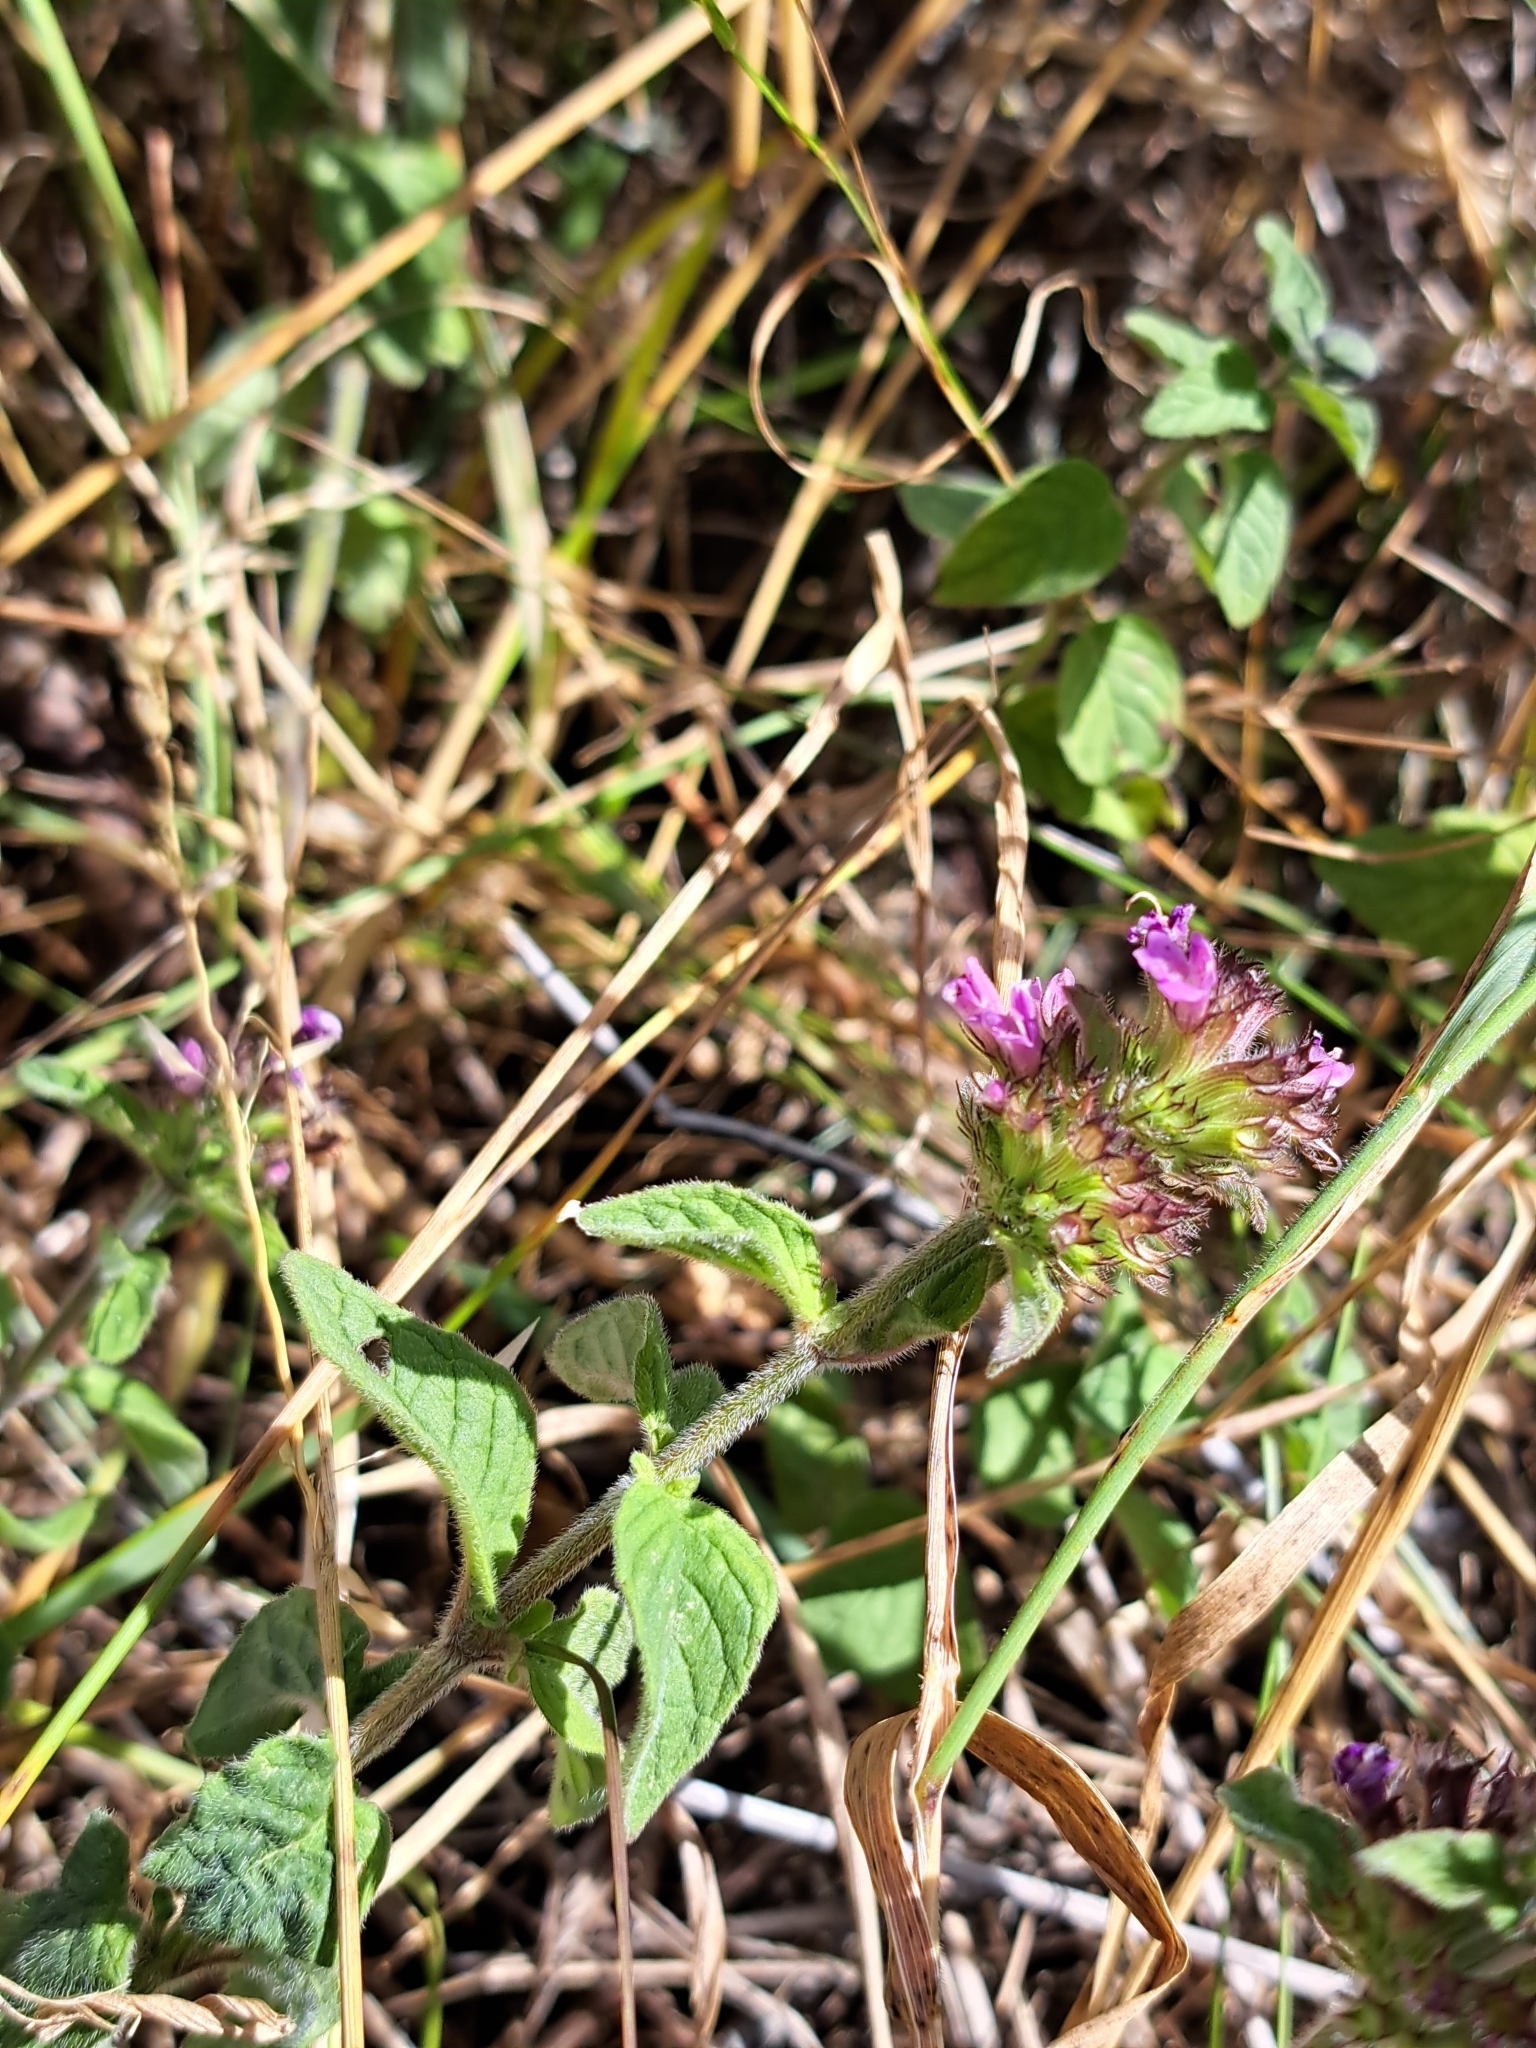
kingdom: Plantae
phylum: Tracheophyta
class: Magnoliopsida
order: Lamiales
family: Lamiaceae
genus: Clinopodium
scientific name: Clinopodium vulgare
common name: Wild basil
